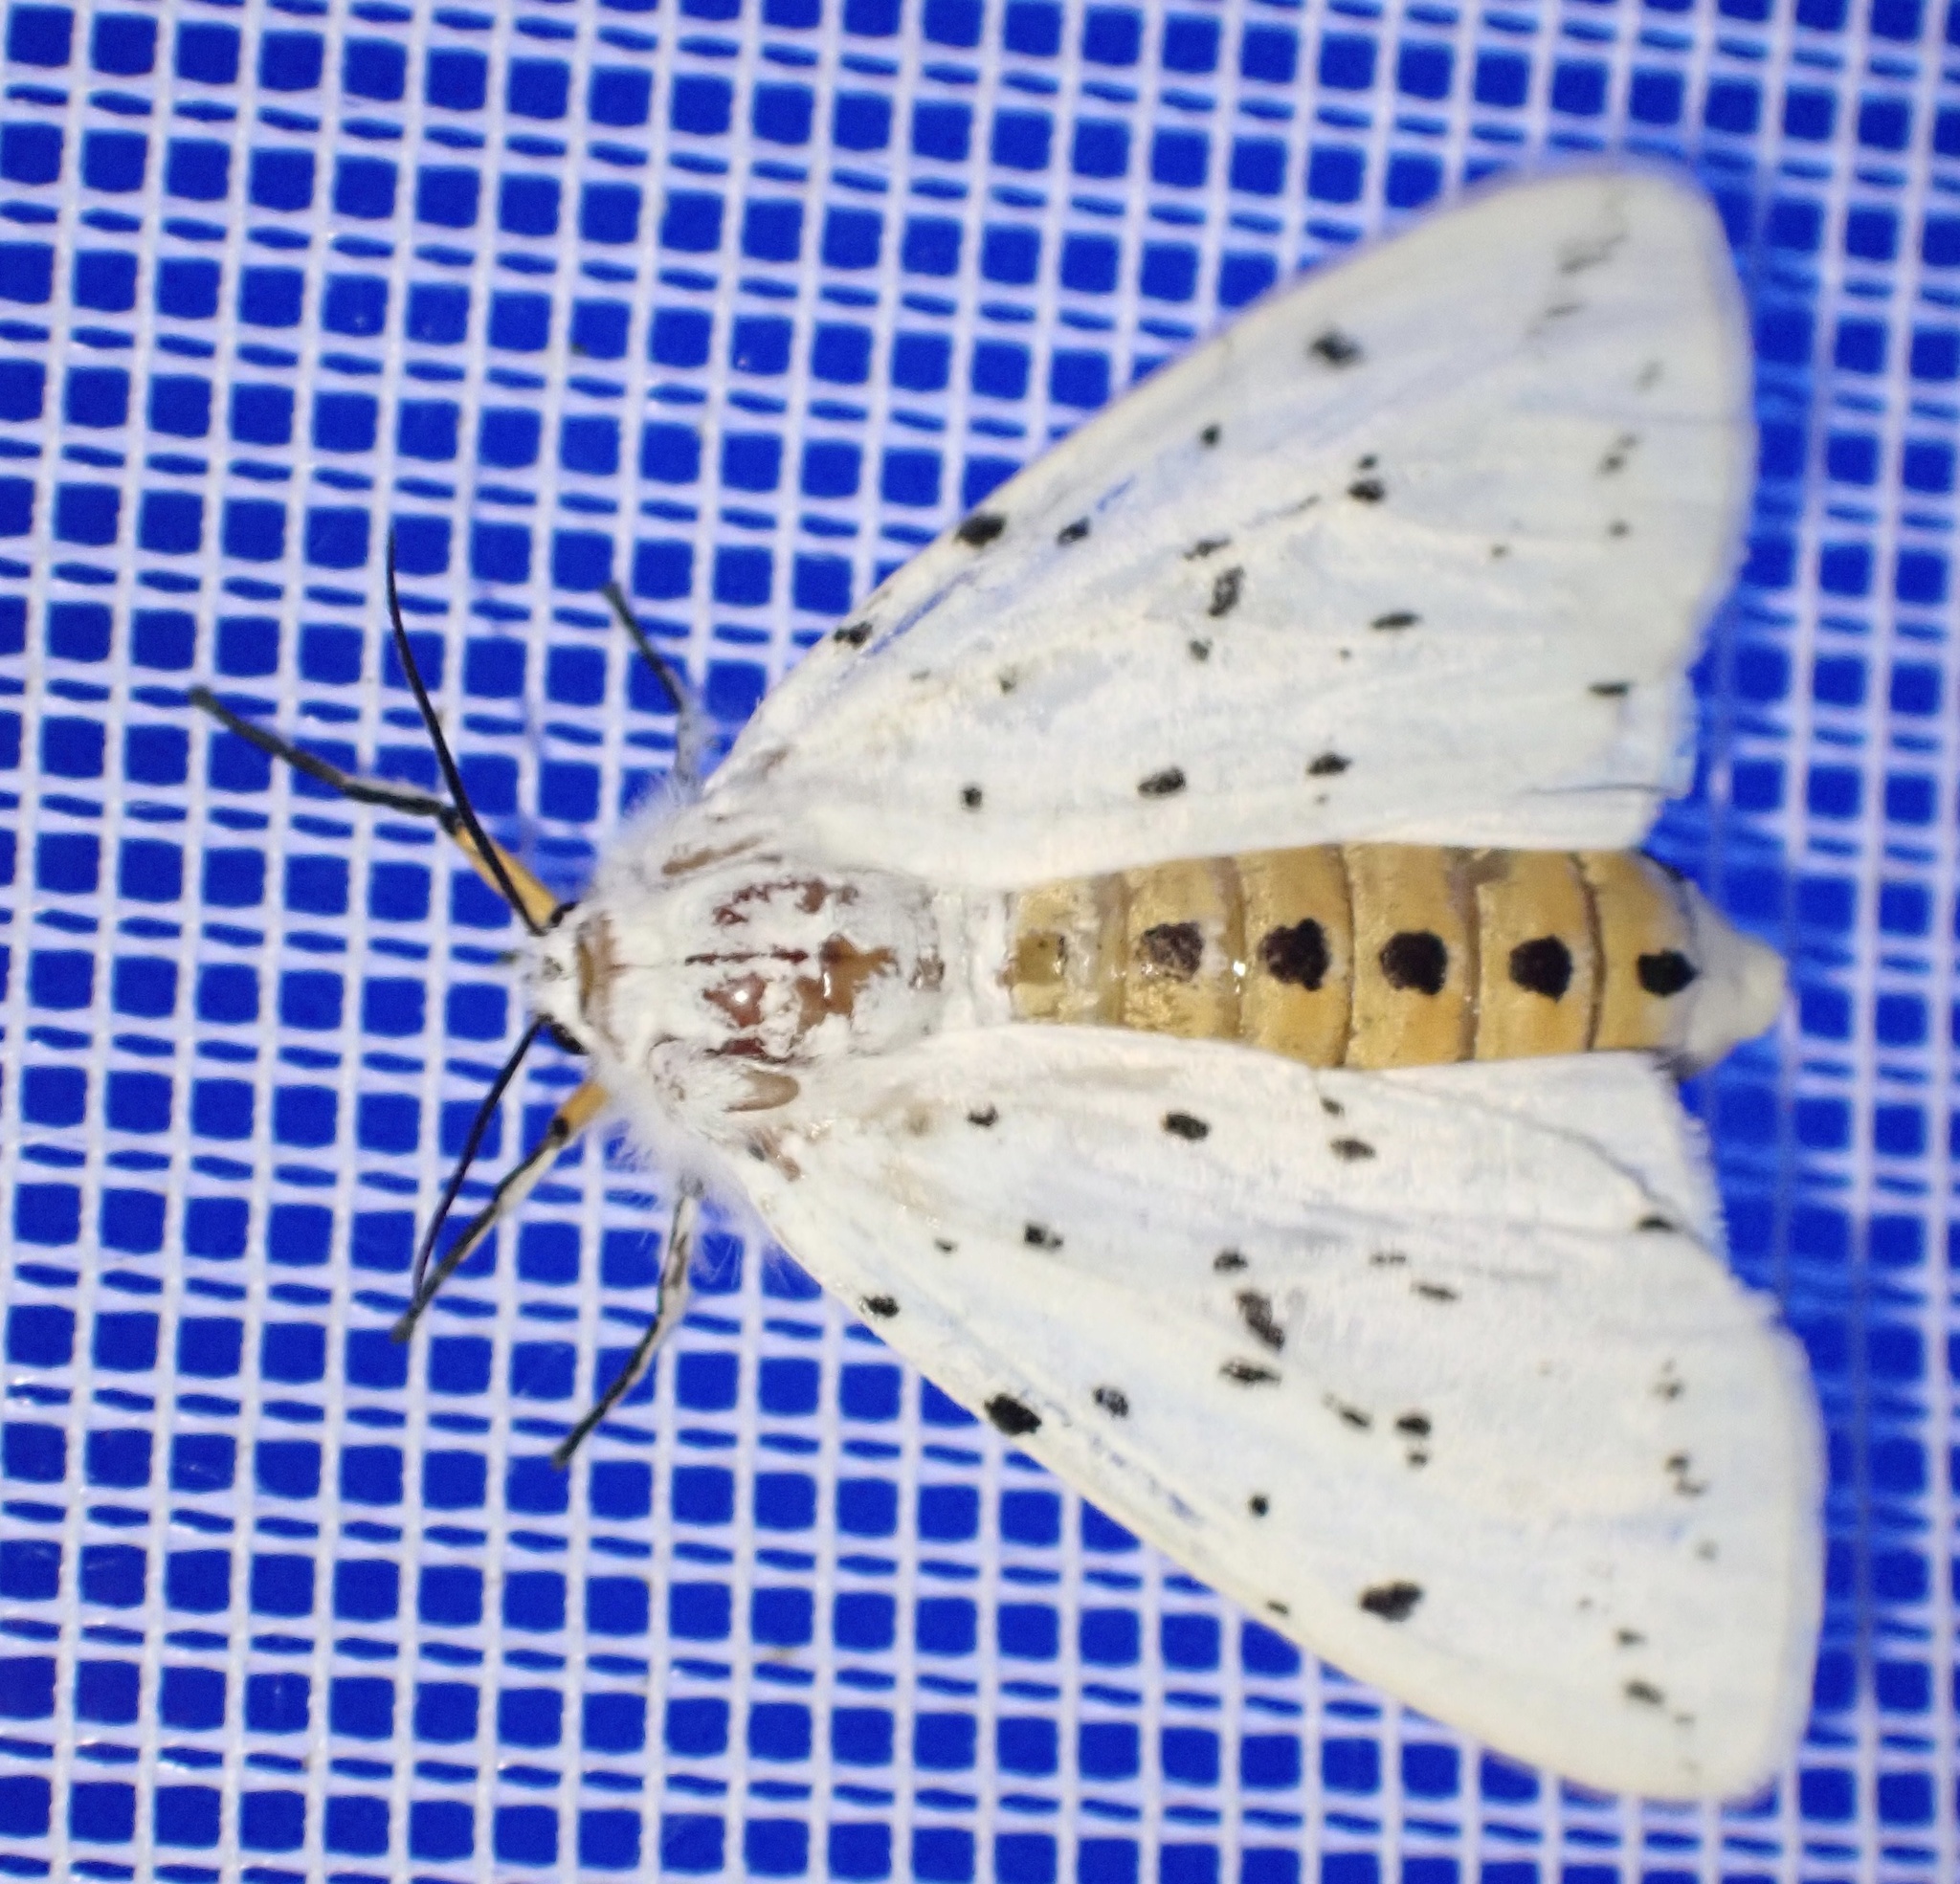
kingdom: Animalia
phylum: Arthropoda
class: Insecta
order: Lepidoptera
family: Erebidae
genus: Spilosoma
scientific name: Spilosoma lubricipeda
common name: White ermine
